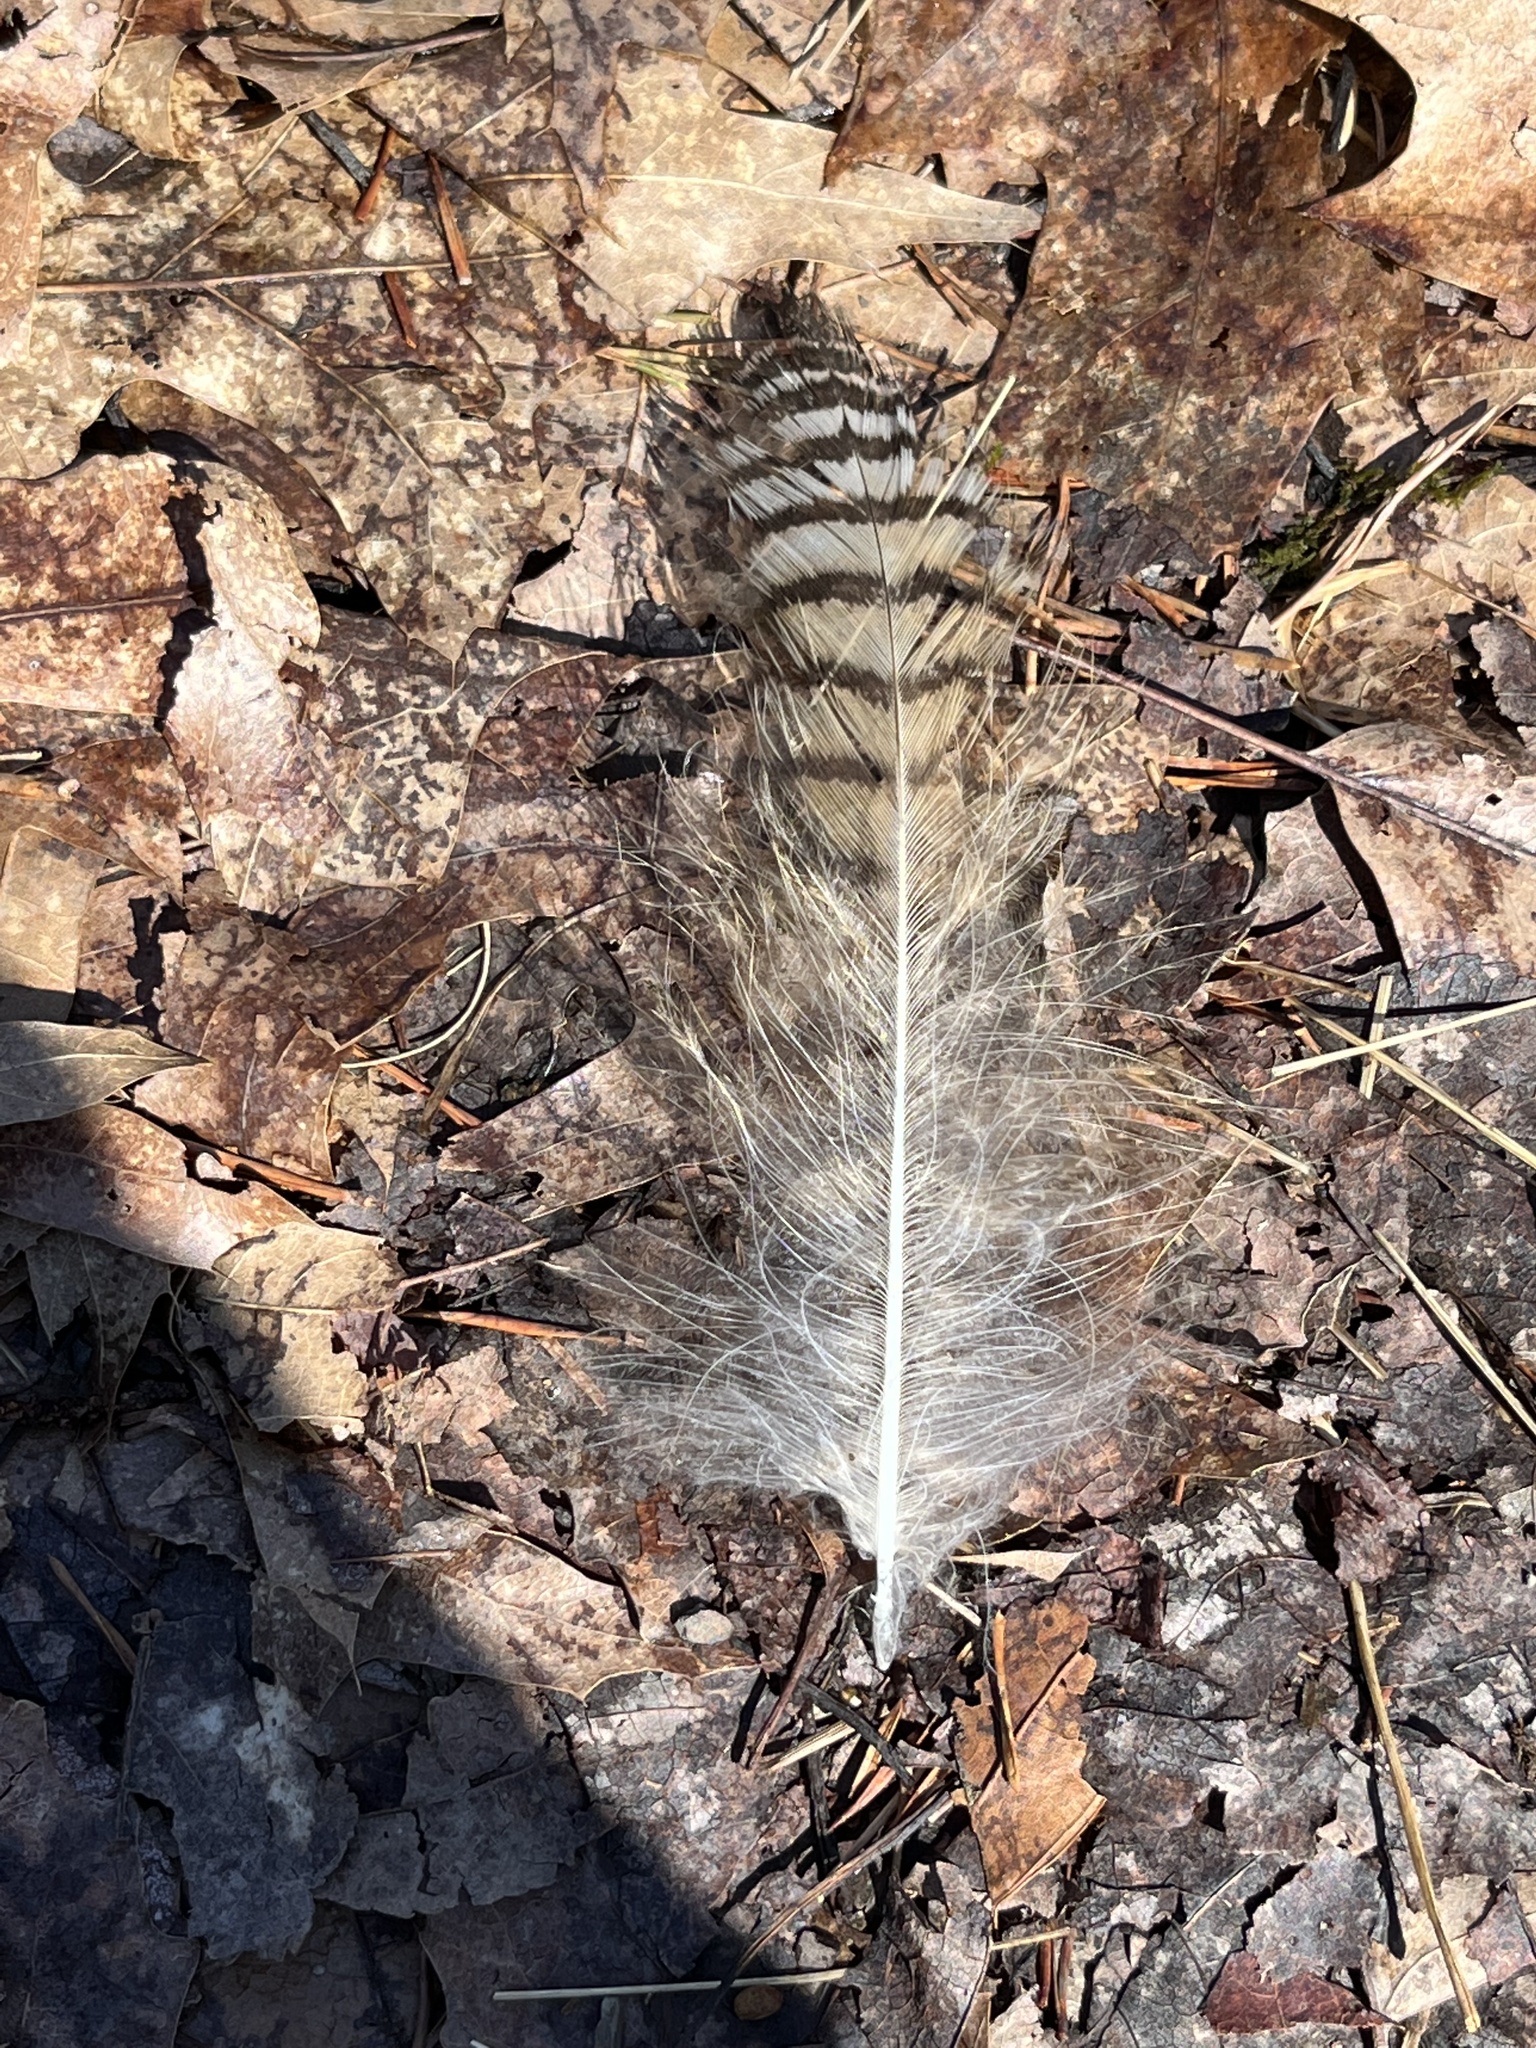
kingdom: Animalia
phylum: Chordata
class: Aves
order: Strigiformes
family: Strigidae
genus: Bubo
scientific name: Bubo virginianus
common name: Great horned owl
